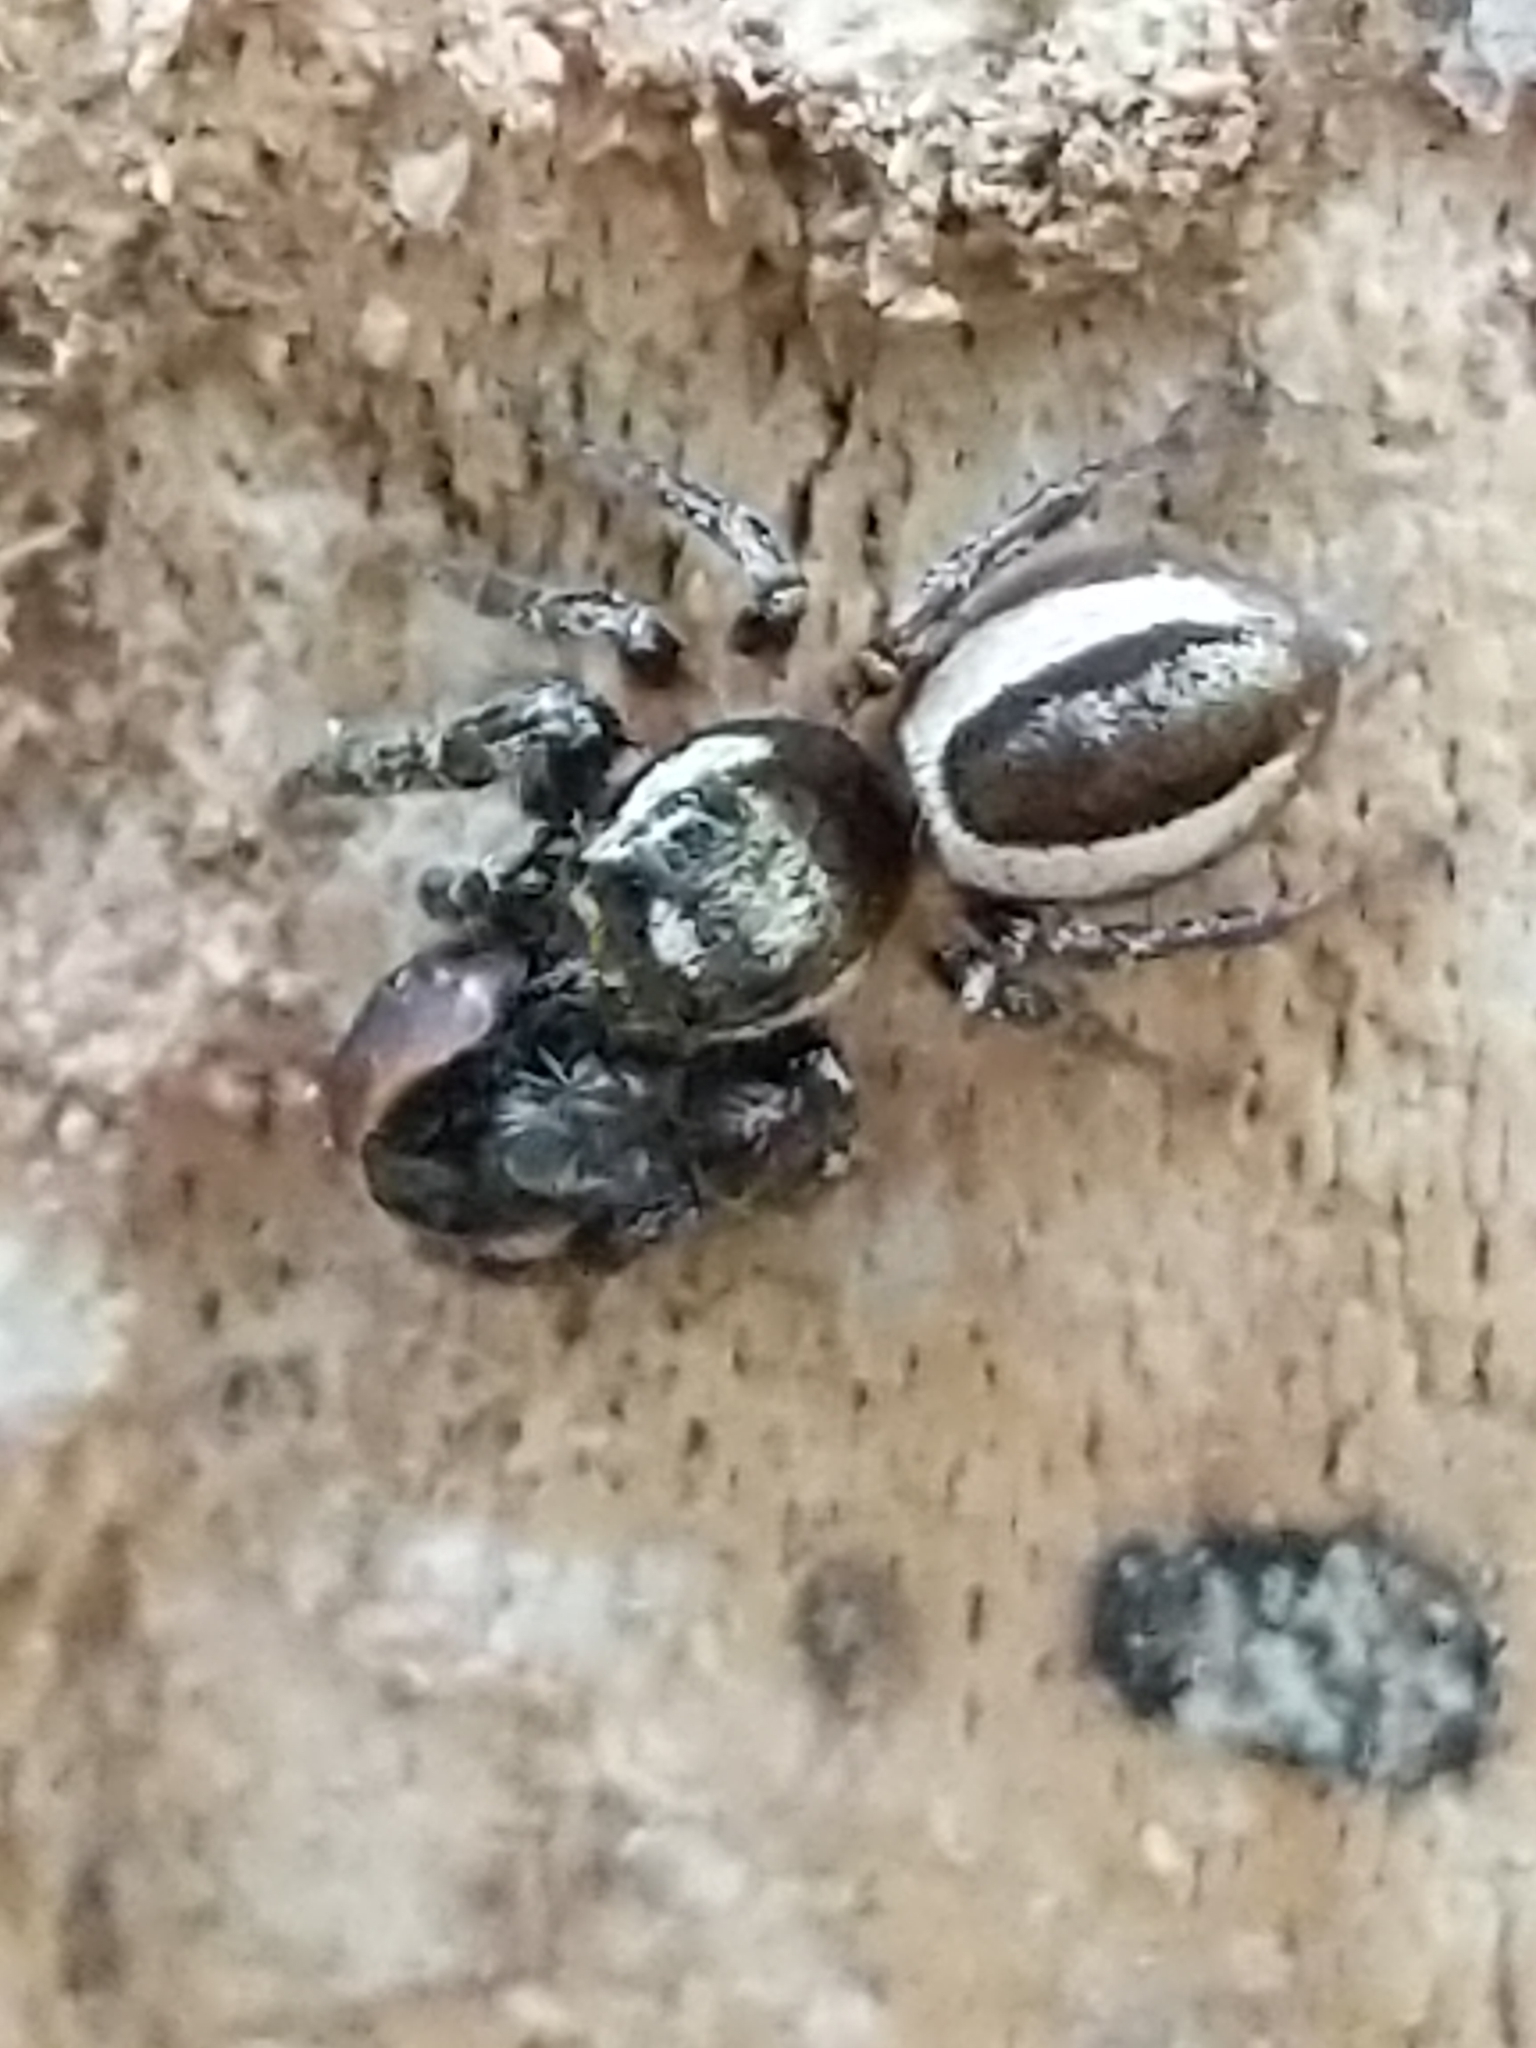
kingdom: Animalia
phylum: Arthropoda
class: Arachnida
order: Araneae
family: Salticidae
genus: Eris
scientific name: Eris militaris
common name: Bronze jumper
